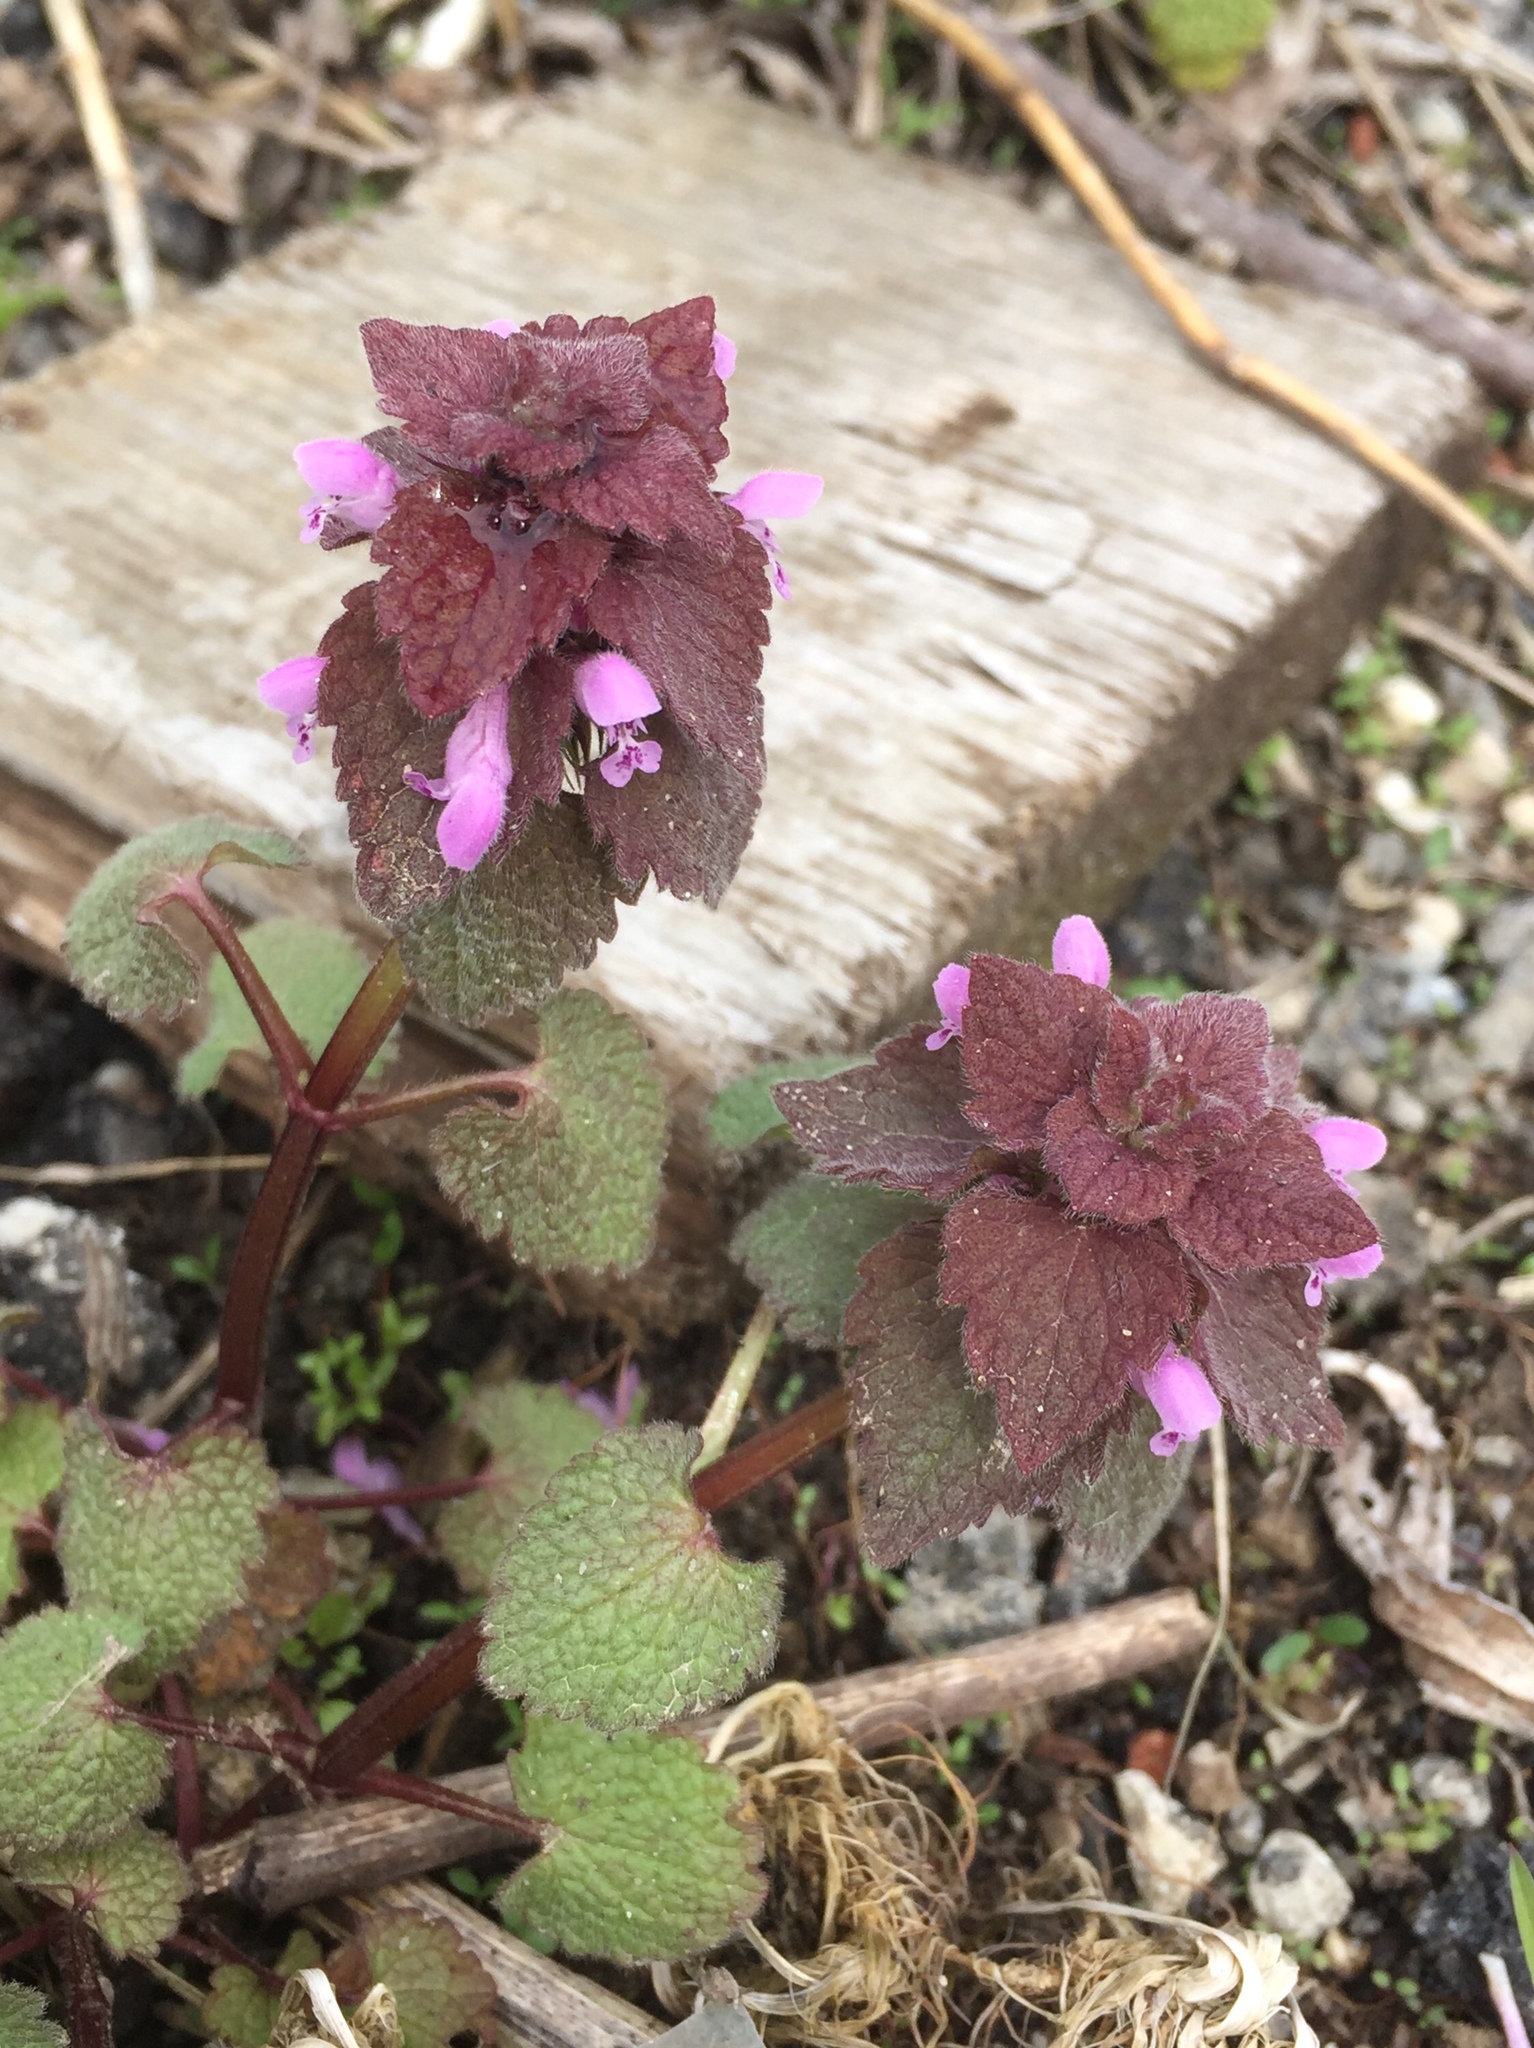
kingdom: Plantae
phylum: Tracheophyta
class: Magnoliopsida
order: Lamiales
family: Lamiaceae
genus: Lamium
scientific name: Lamium purpureum
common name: Red dead-nettle
